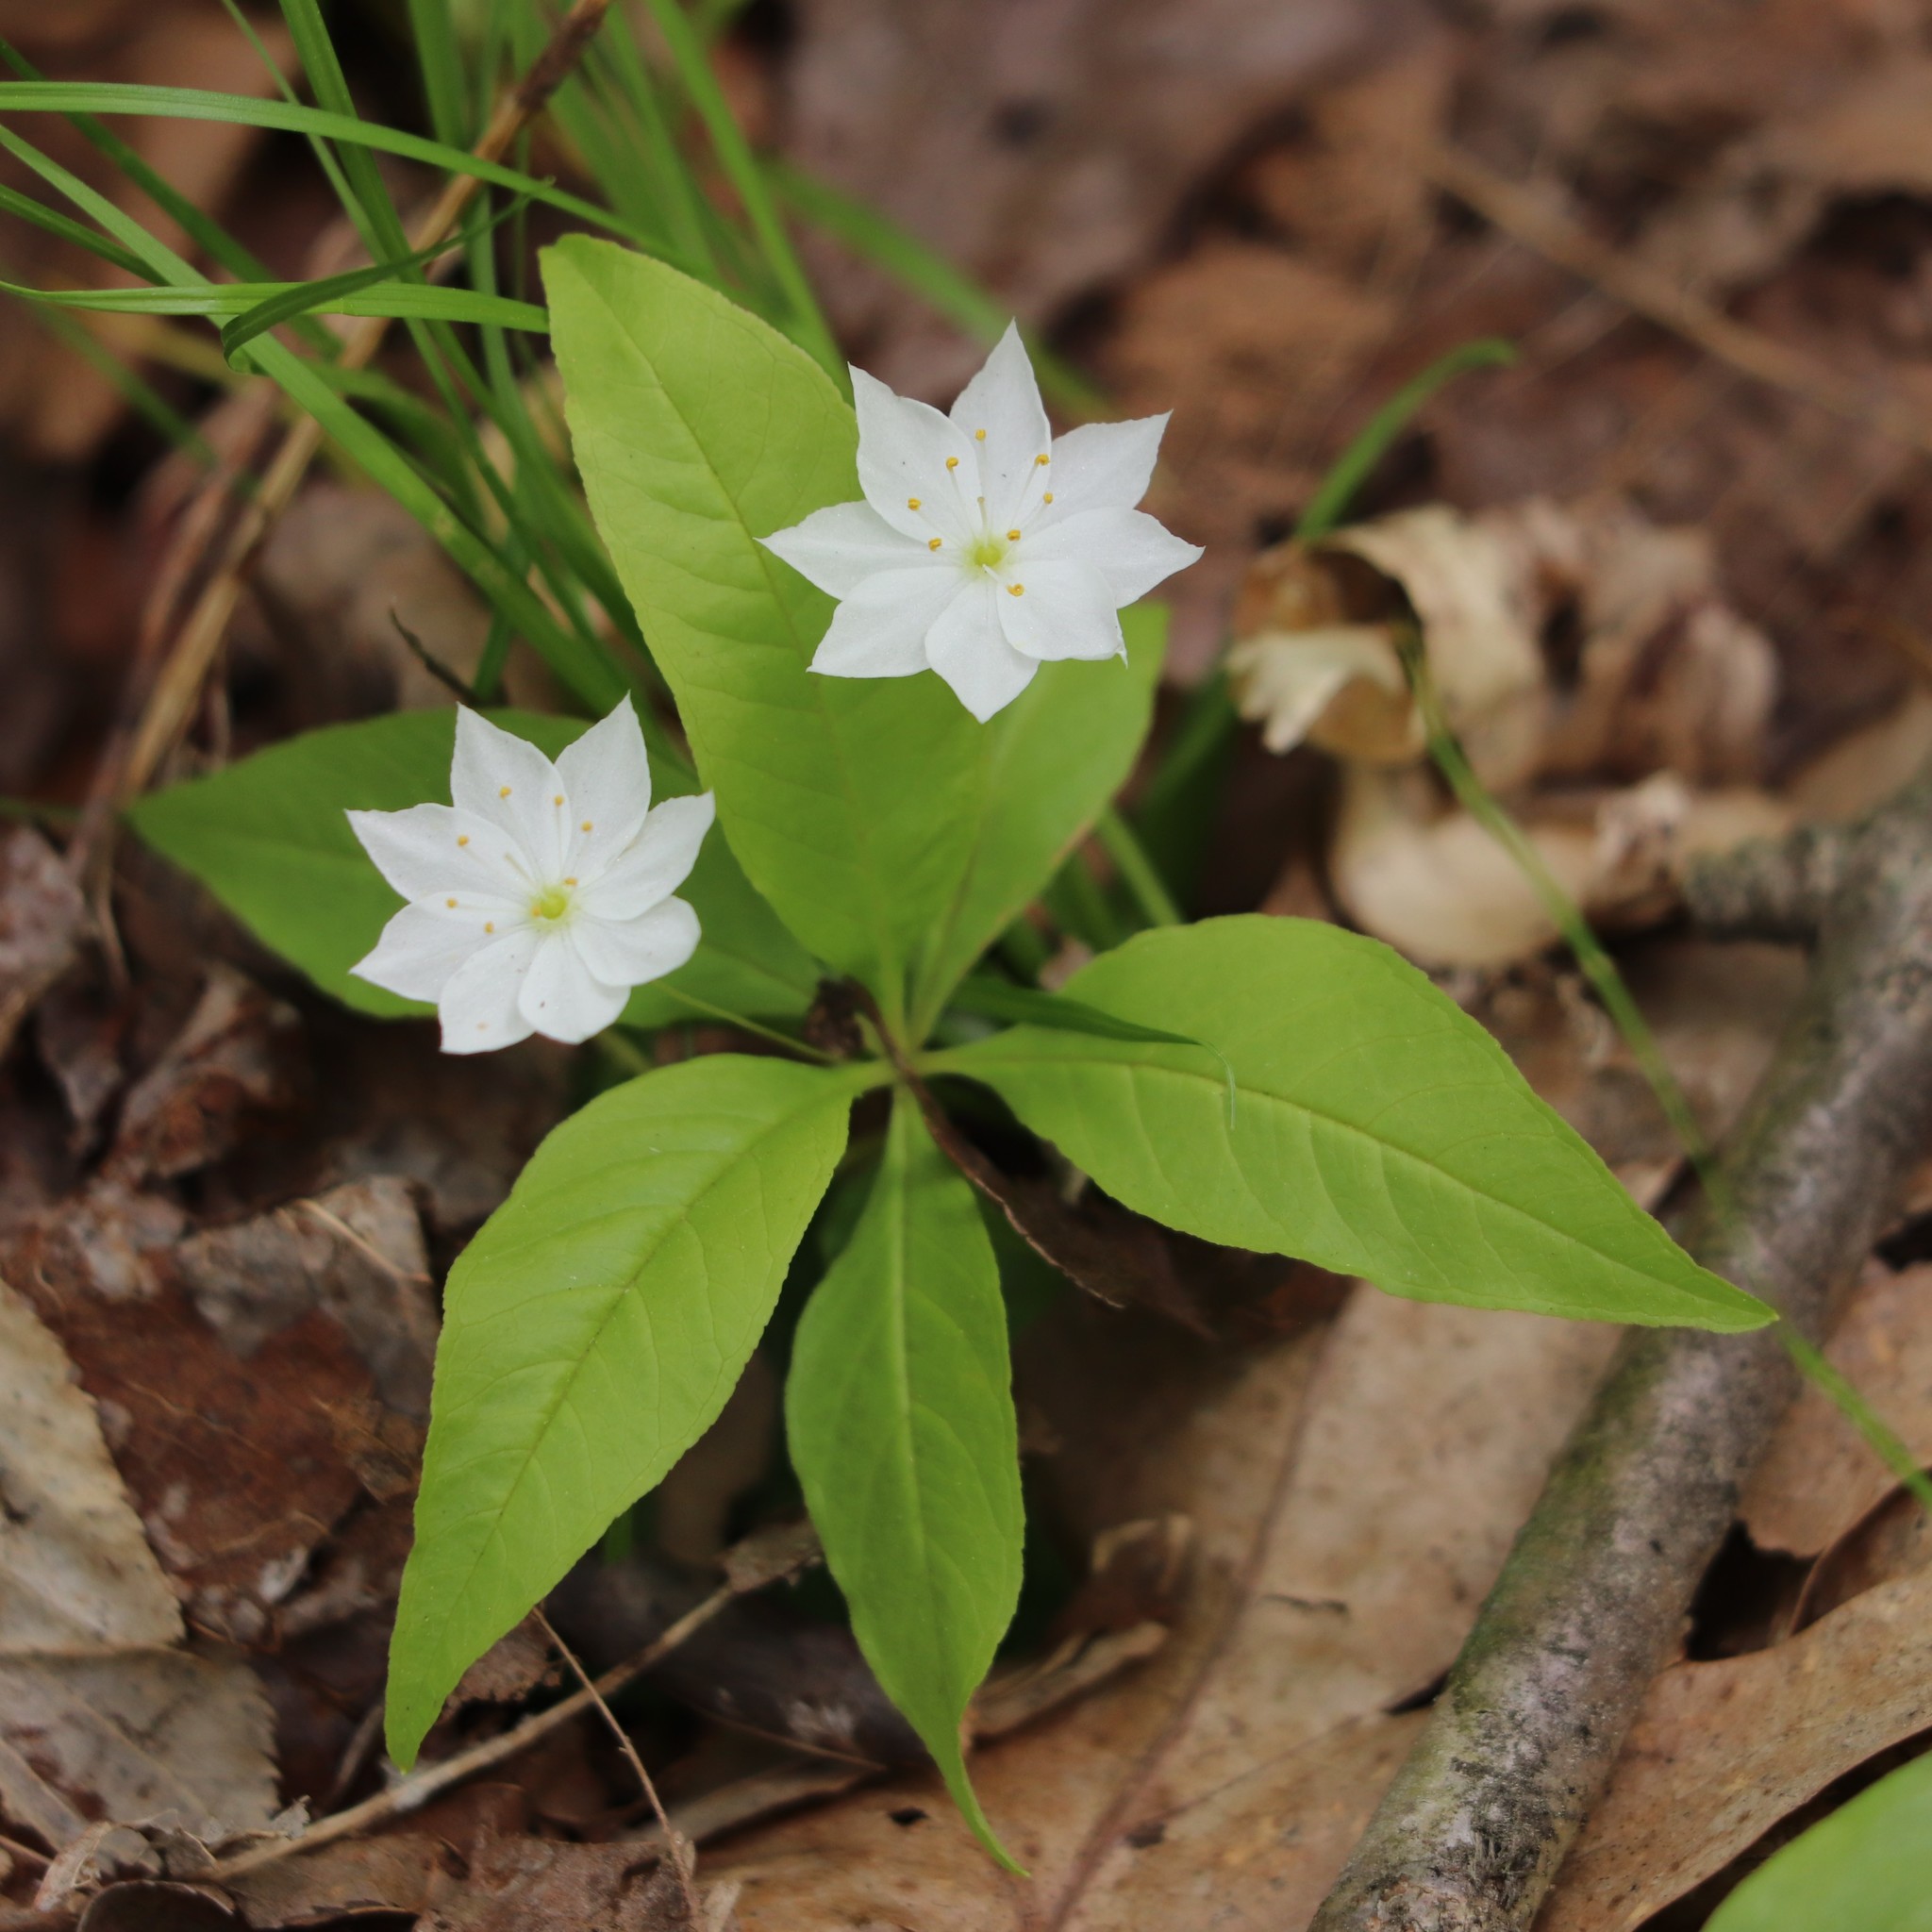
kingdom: Plantae
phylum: Tracheophyta
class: Magnoliopsida
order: Ericales
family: Primulaceae
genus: Lysimachia
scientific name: Lysimachia borealis
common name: American starflower
